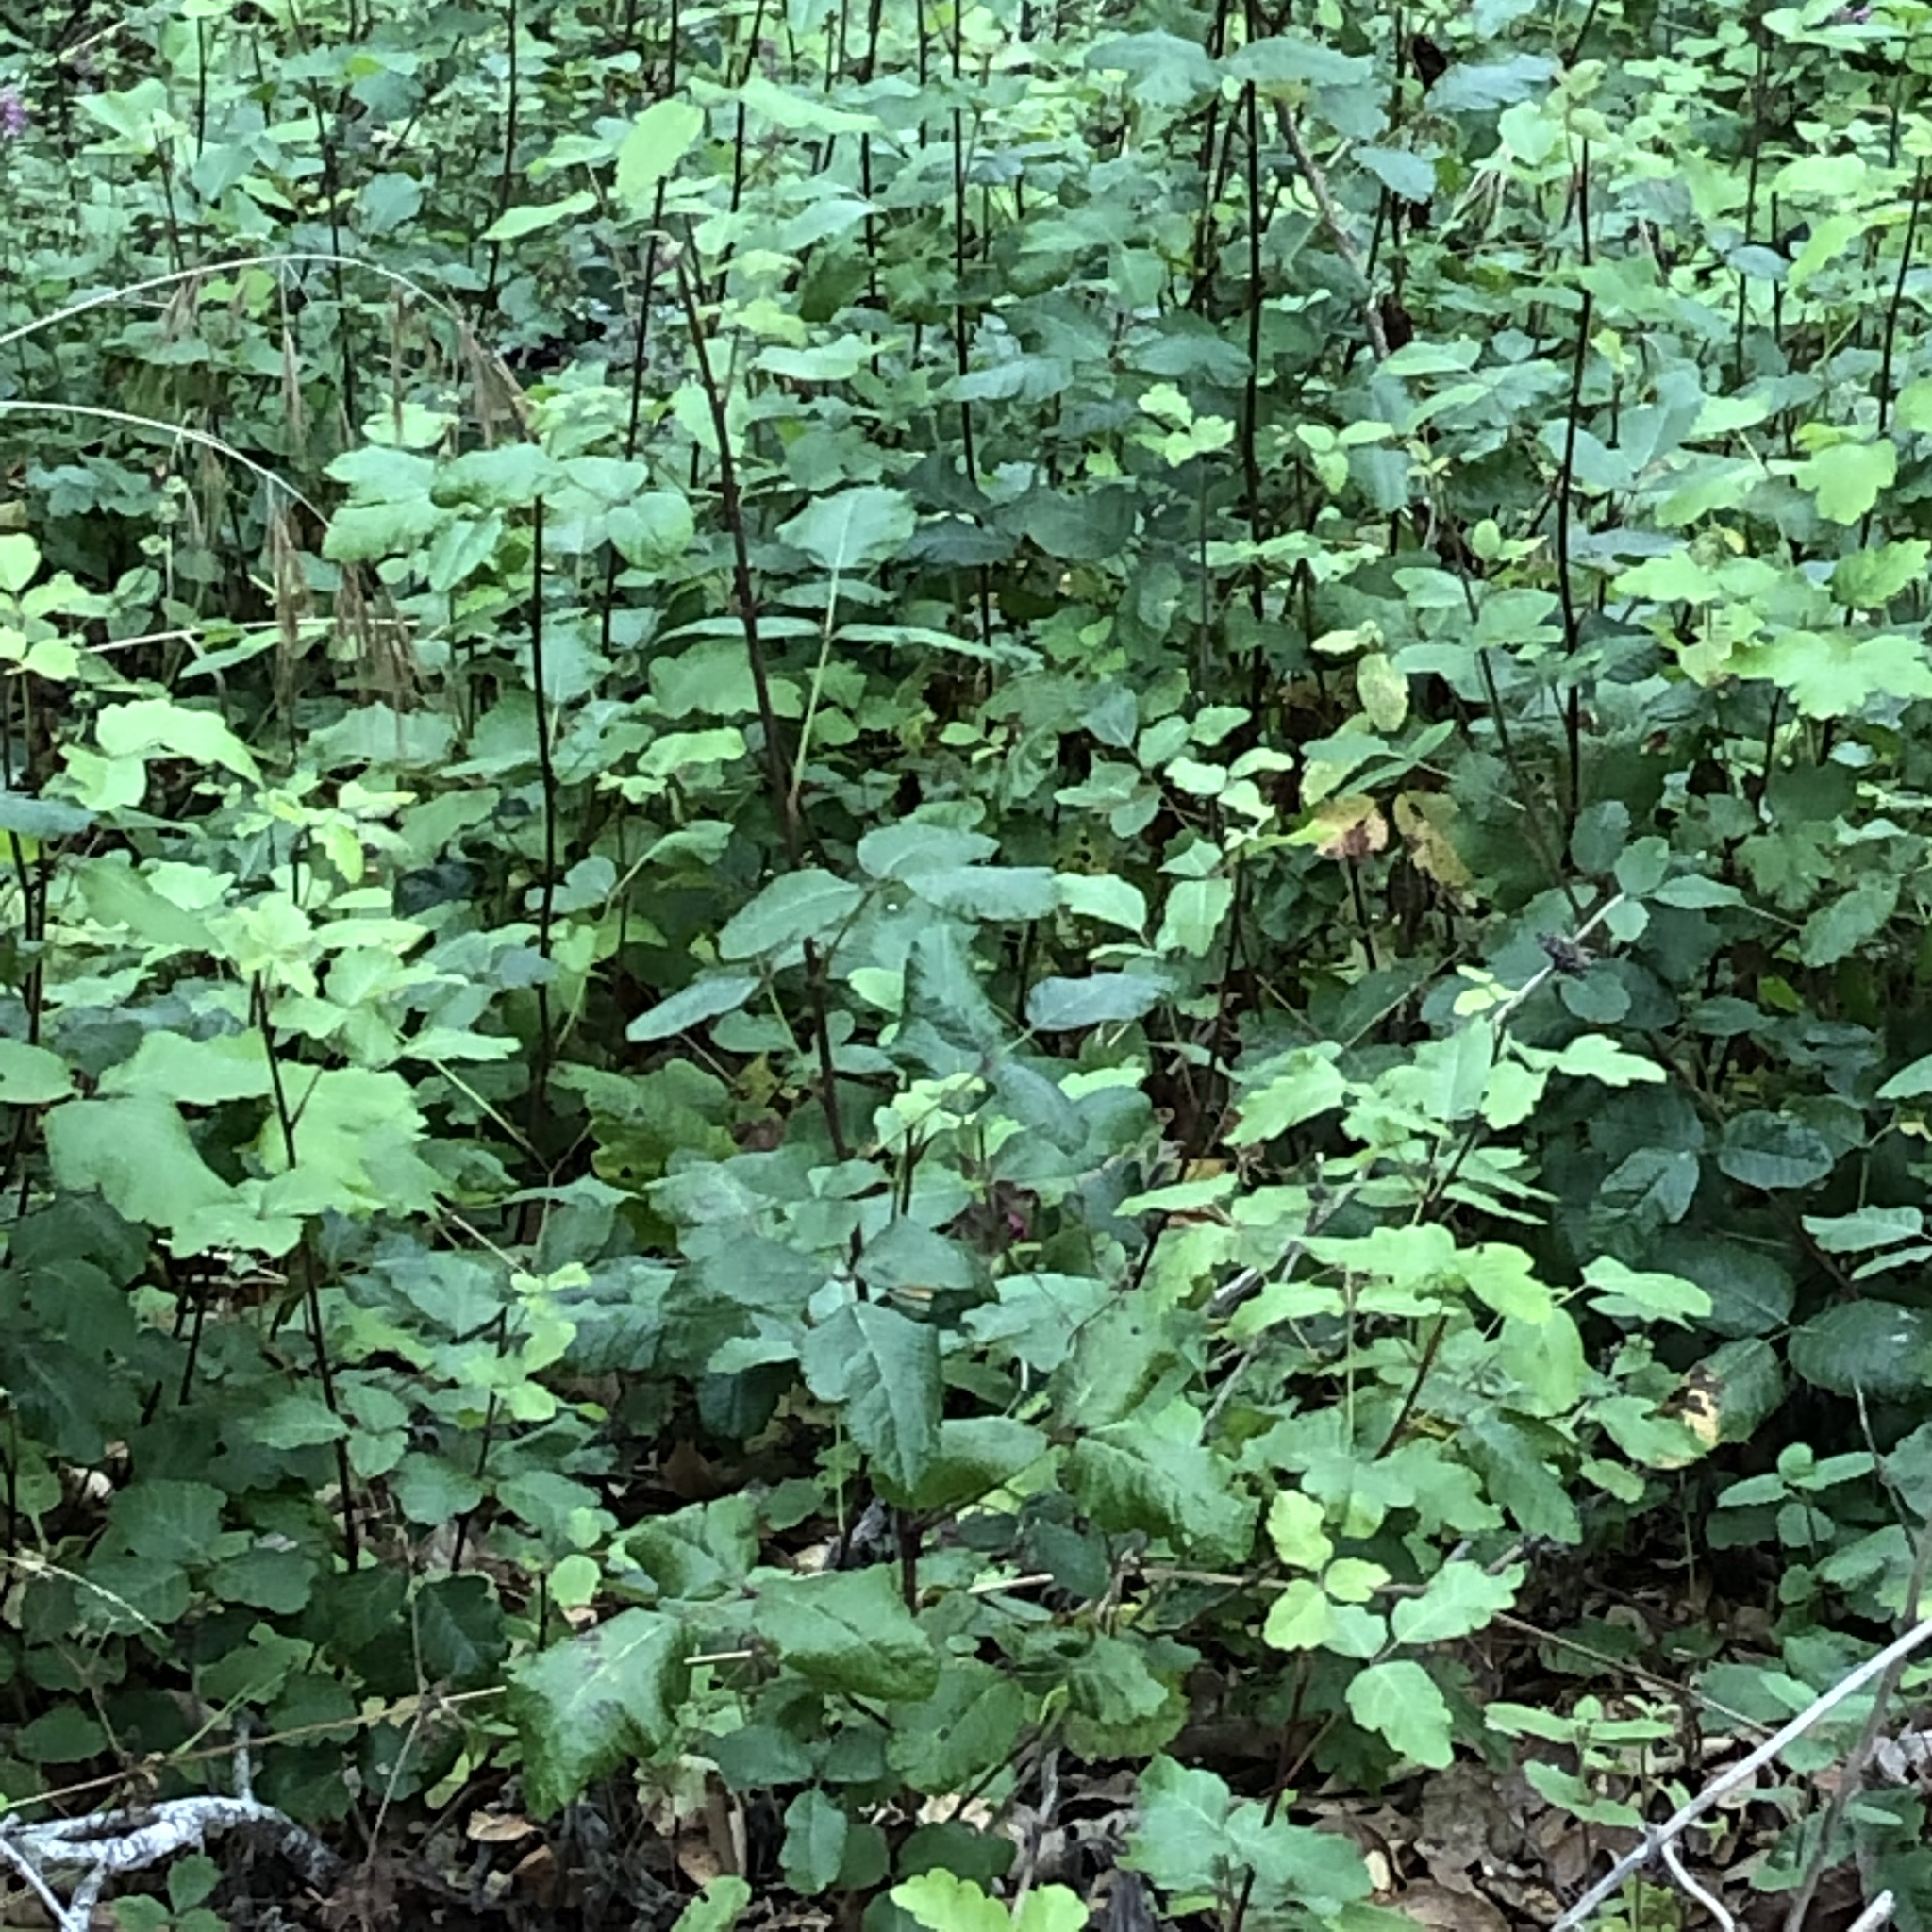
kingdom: Plantae
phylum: Tracheophyta
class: Magnoliopsida
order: Sapindales
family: Anacardiaceae
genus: Toxicodendron
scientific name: Toxicodendron diversilobum
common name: Pacific poison-oak
